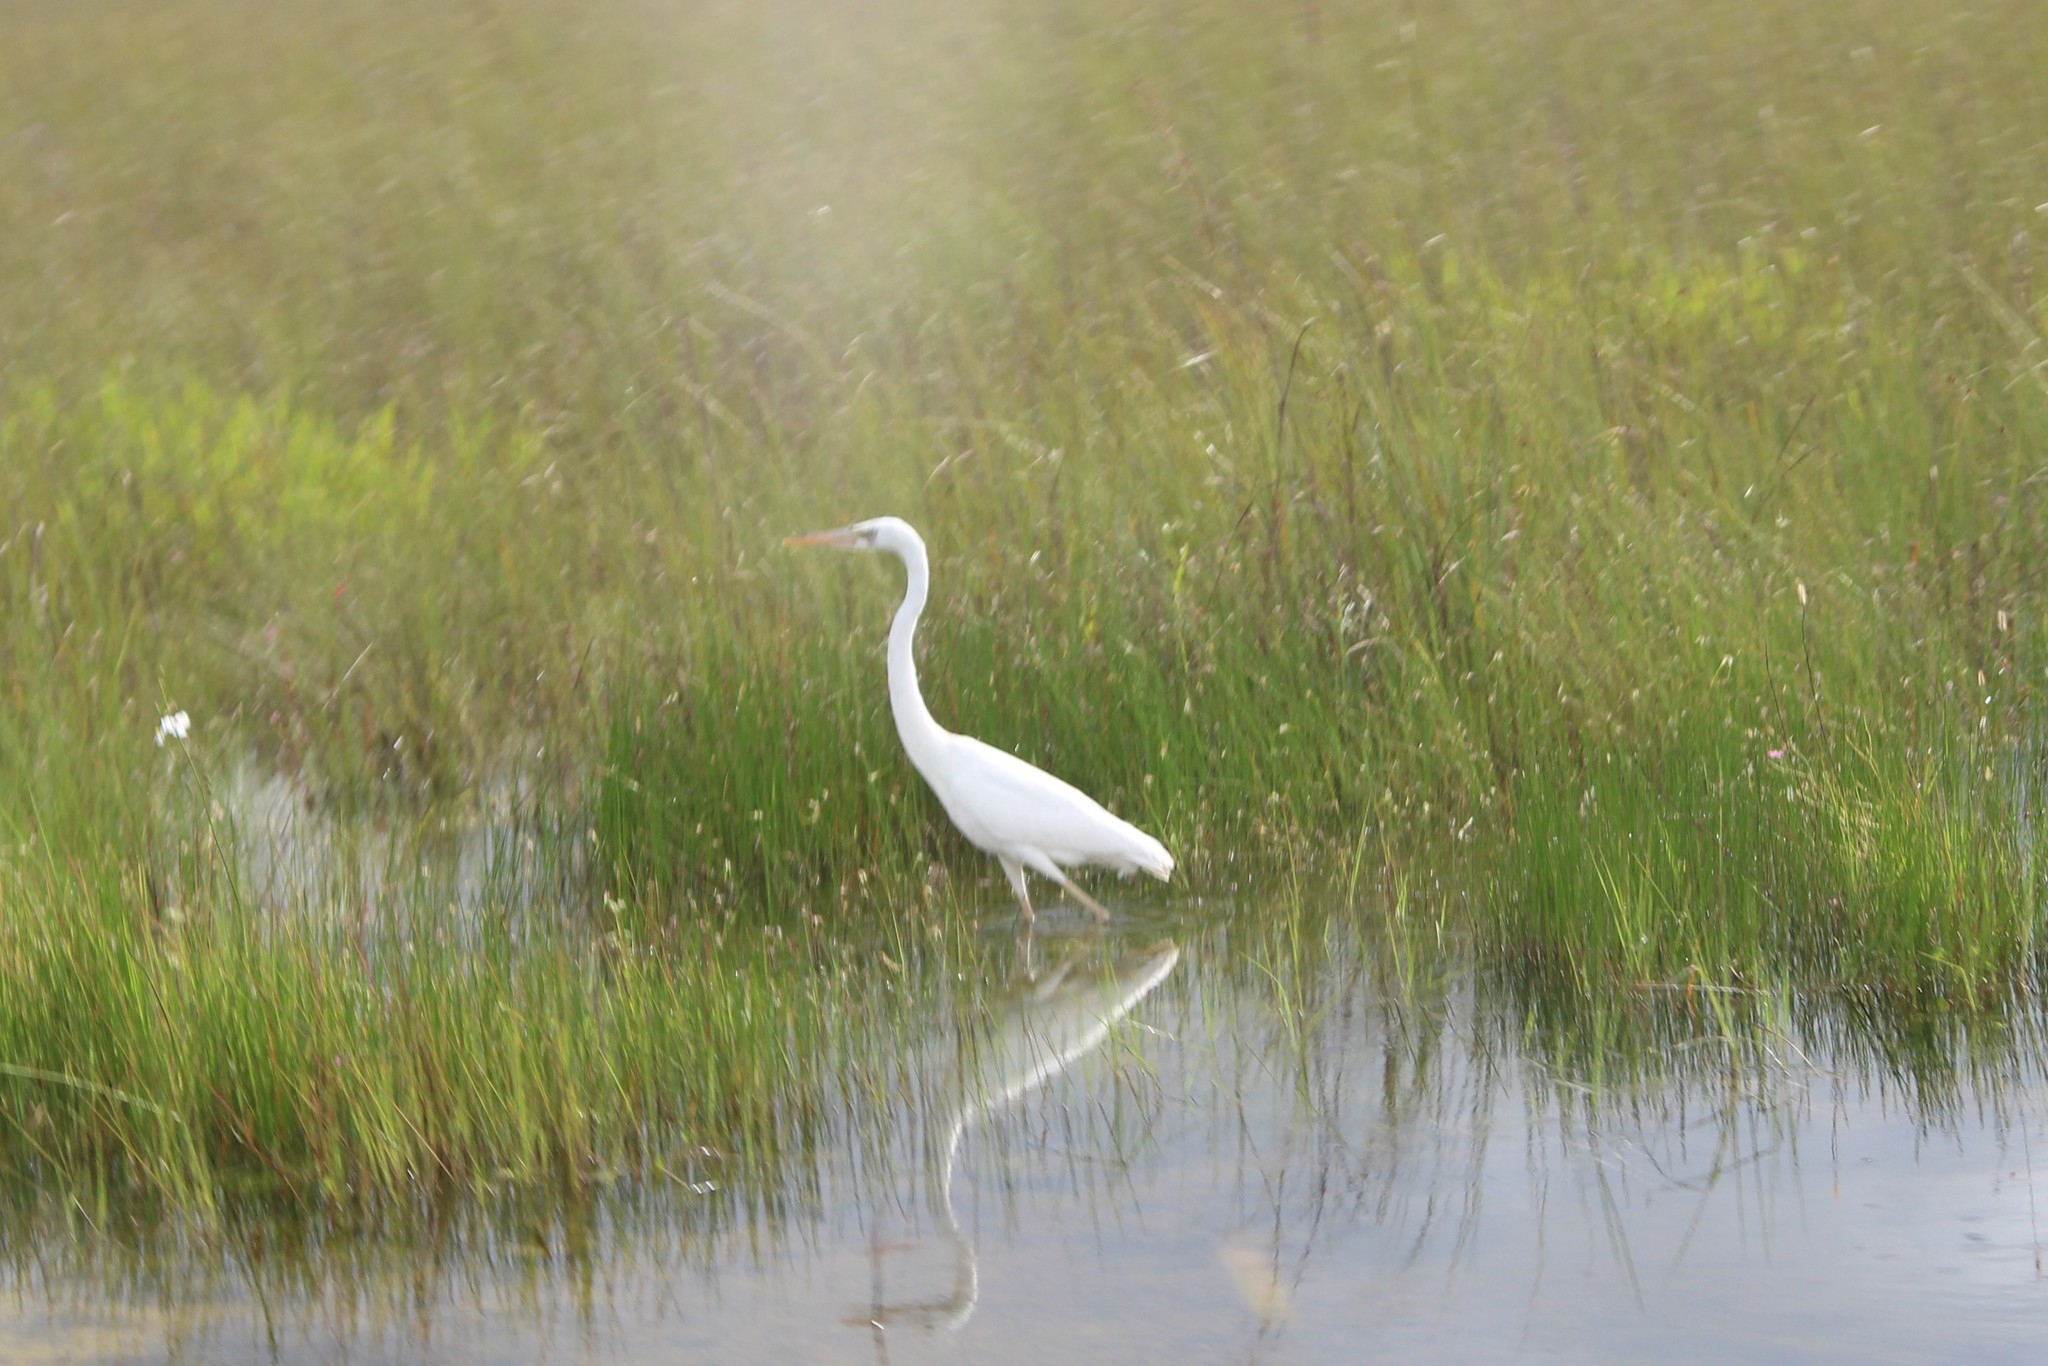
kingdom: Animalia
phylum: Chordata
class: Aves
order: Pelecaniformes
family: Ardeidae
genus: Ardea
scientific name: Ardea herodias
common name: Great blue heron
